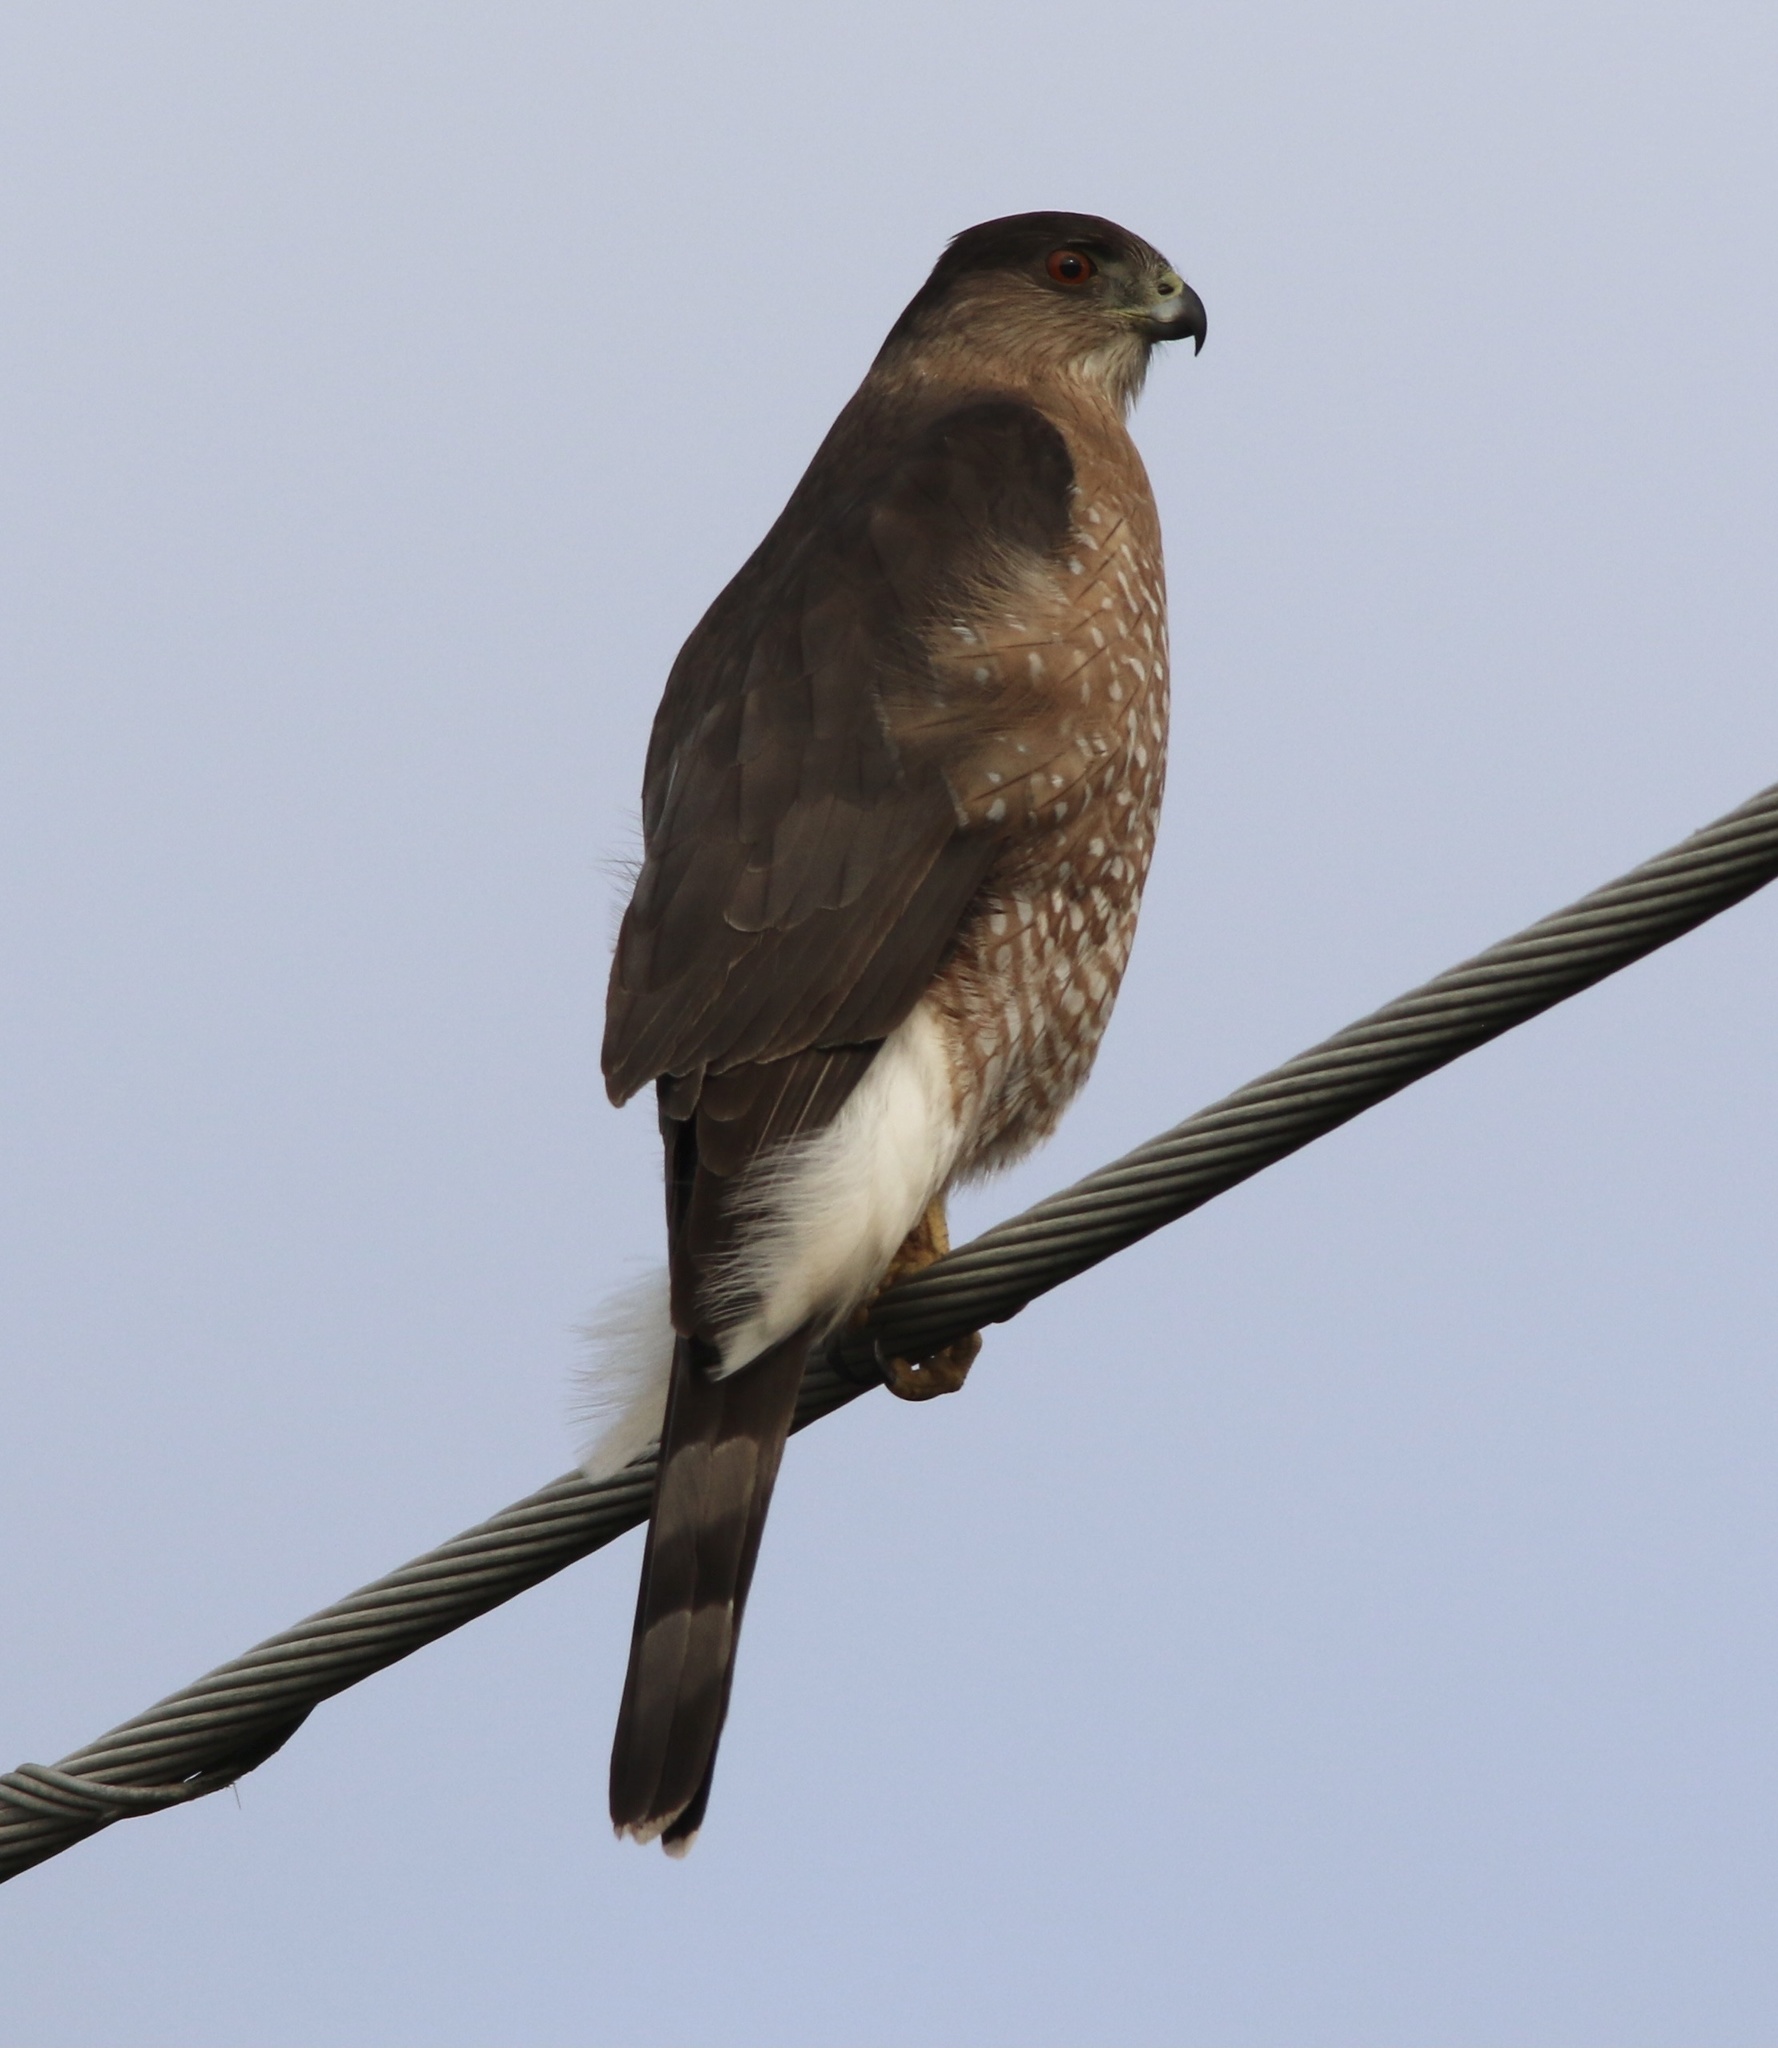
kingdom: Animalia
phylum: Chordata
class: Aves
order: Accipitriformes
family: Accipitridae
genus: Accipiter
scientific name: Accipiter cooperii
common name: Cooper's hawk
